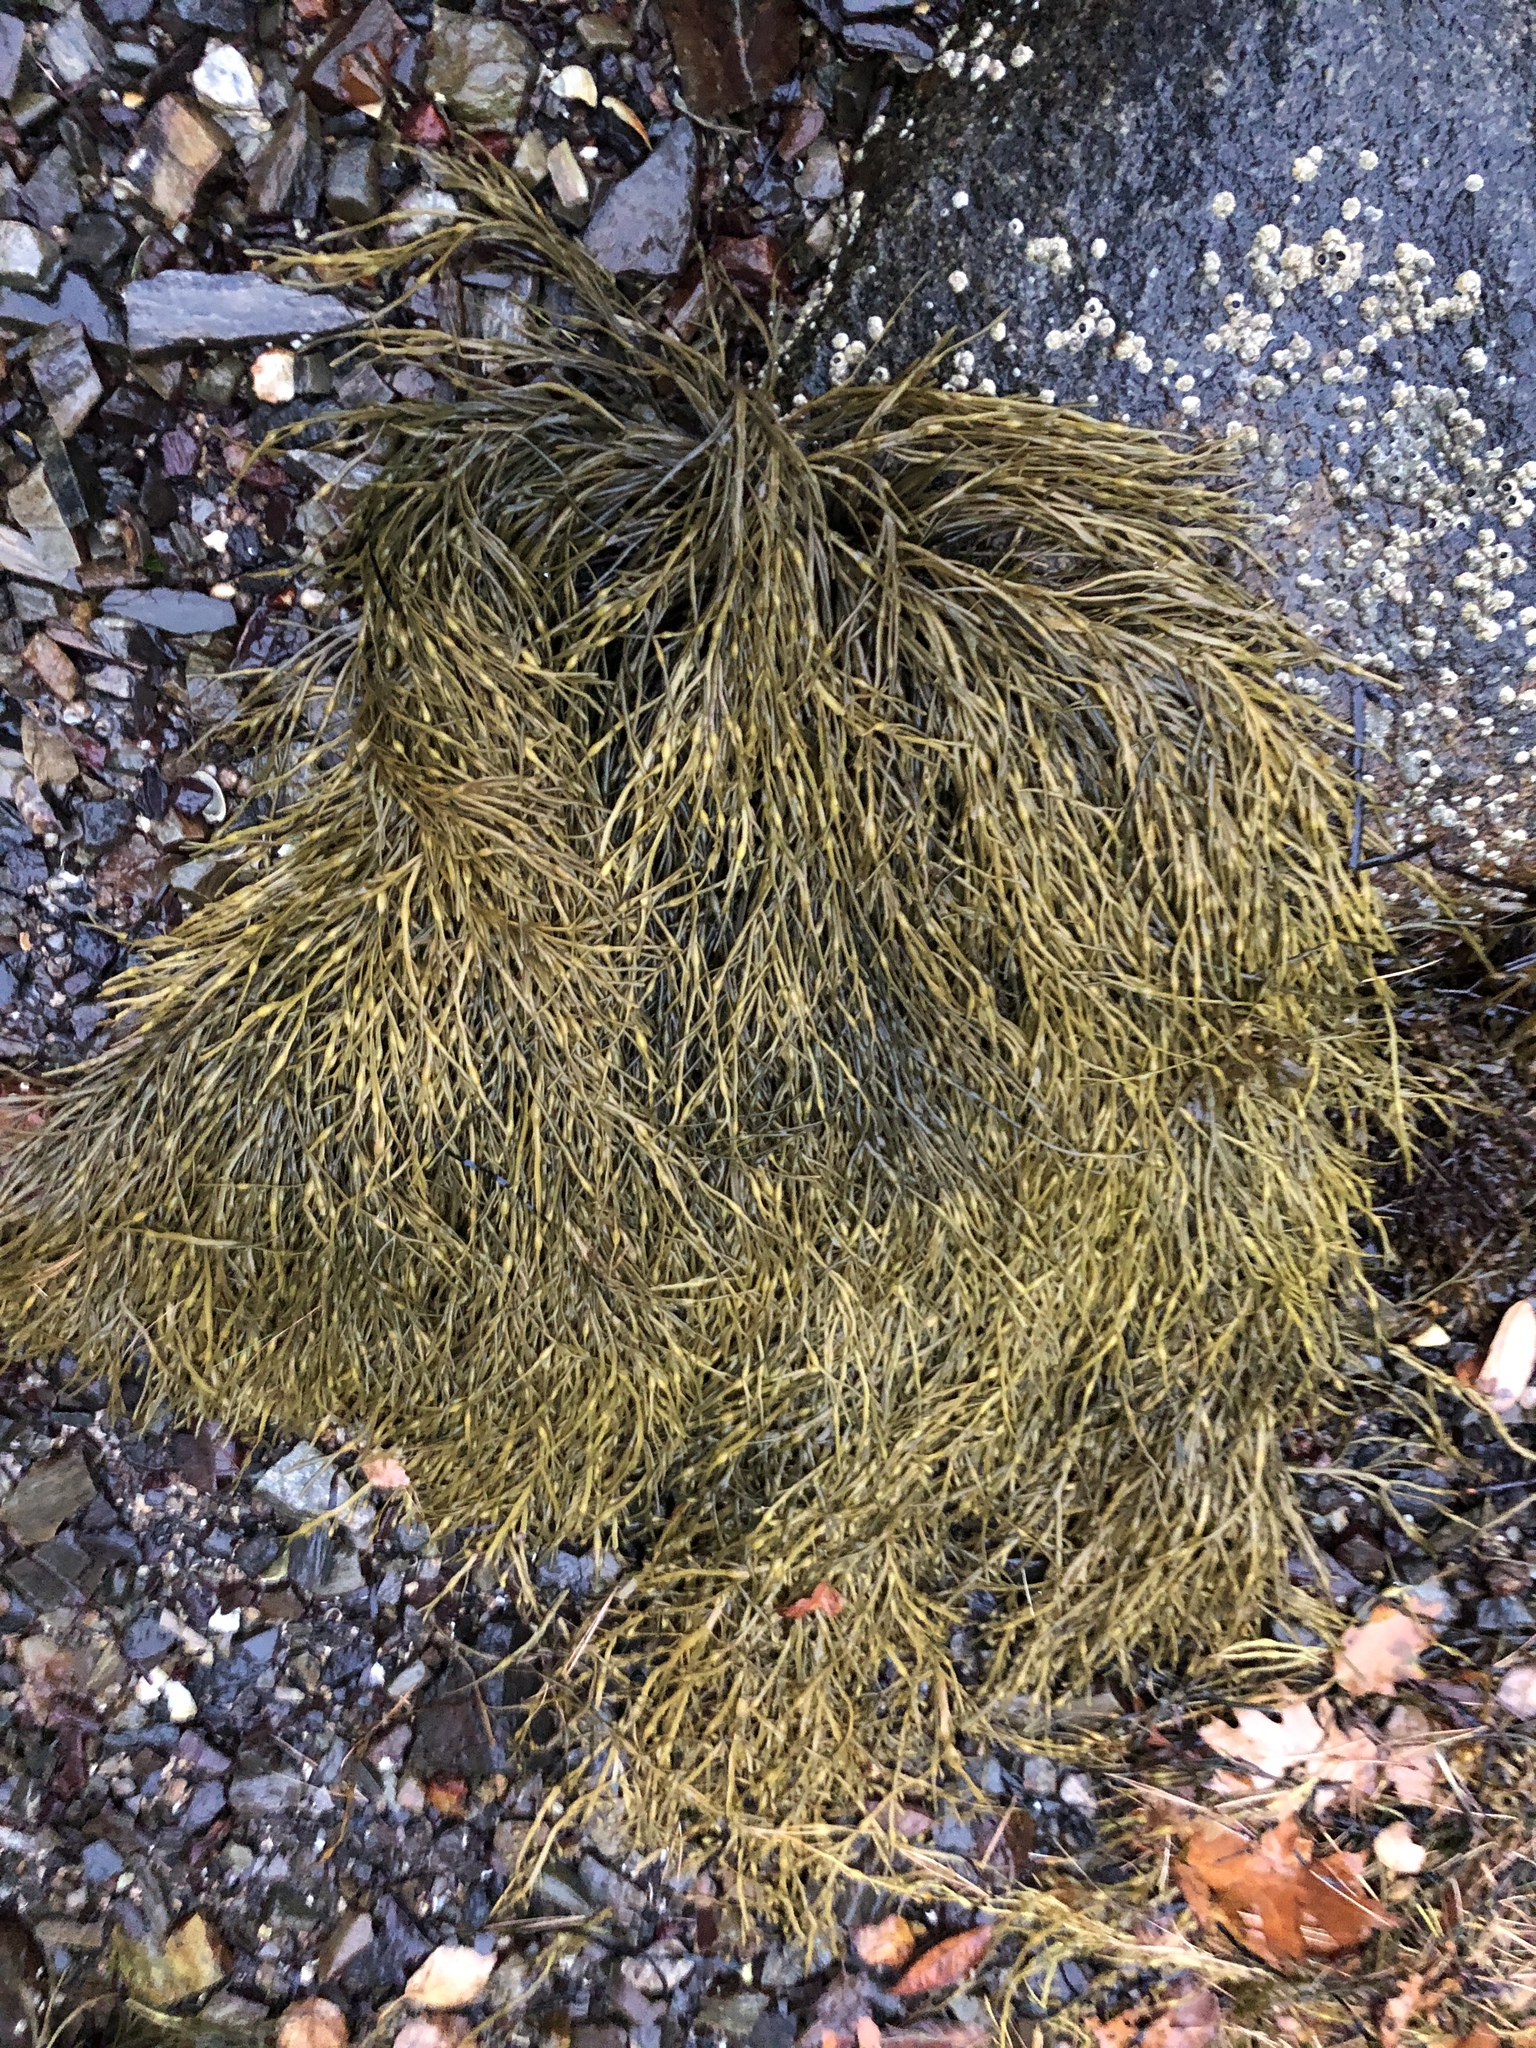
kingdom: Chromista
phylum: Ochrophyta
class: Phaeophyceae
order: Fucales
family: Fucaceae
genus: Ascophyllum
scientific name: Ascophyllum nodosum
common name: Knotted wrack
